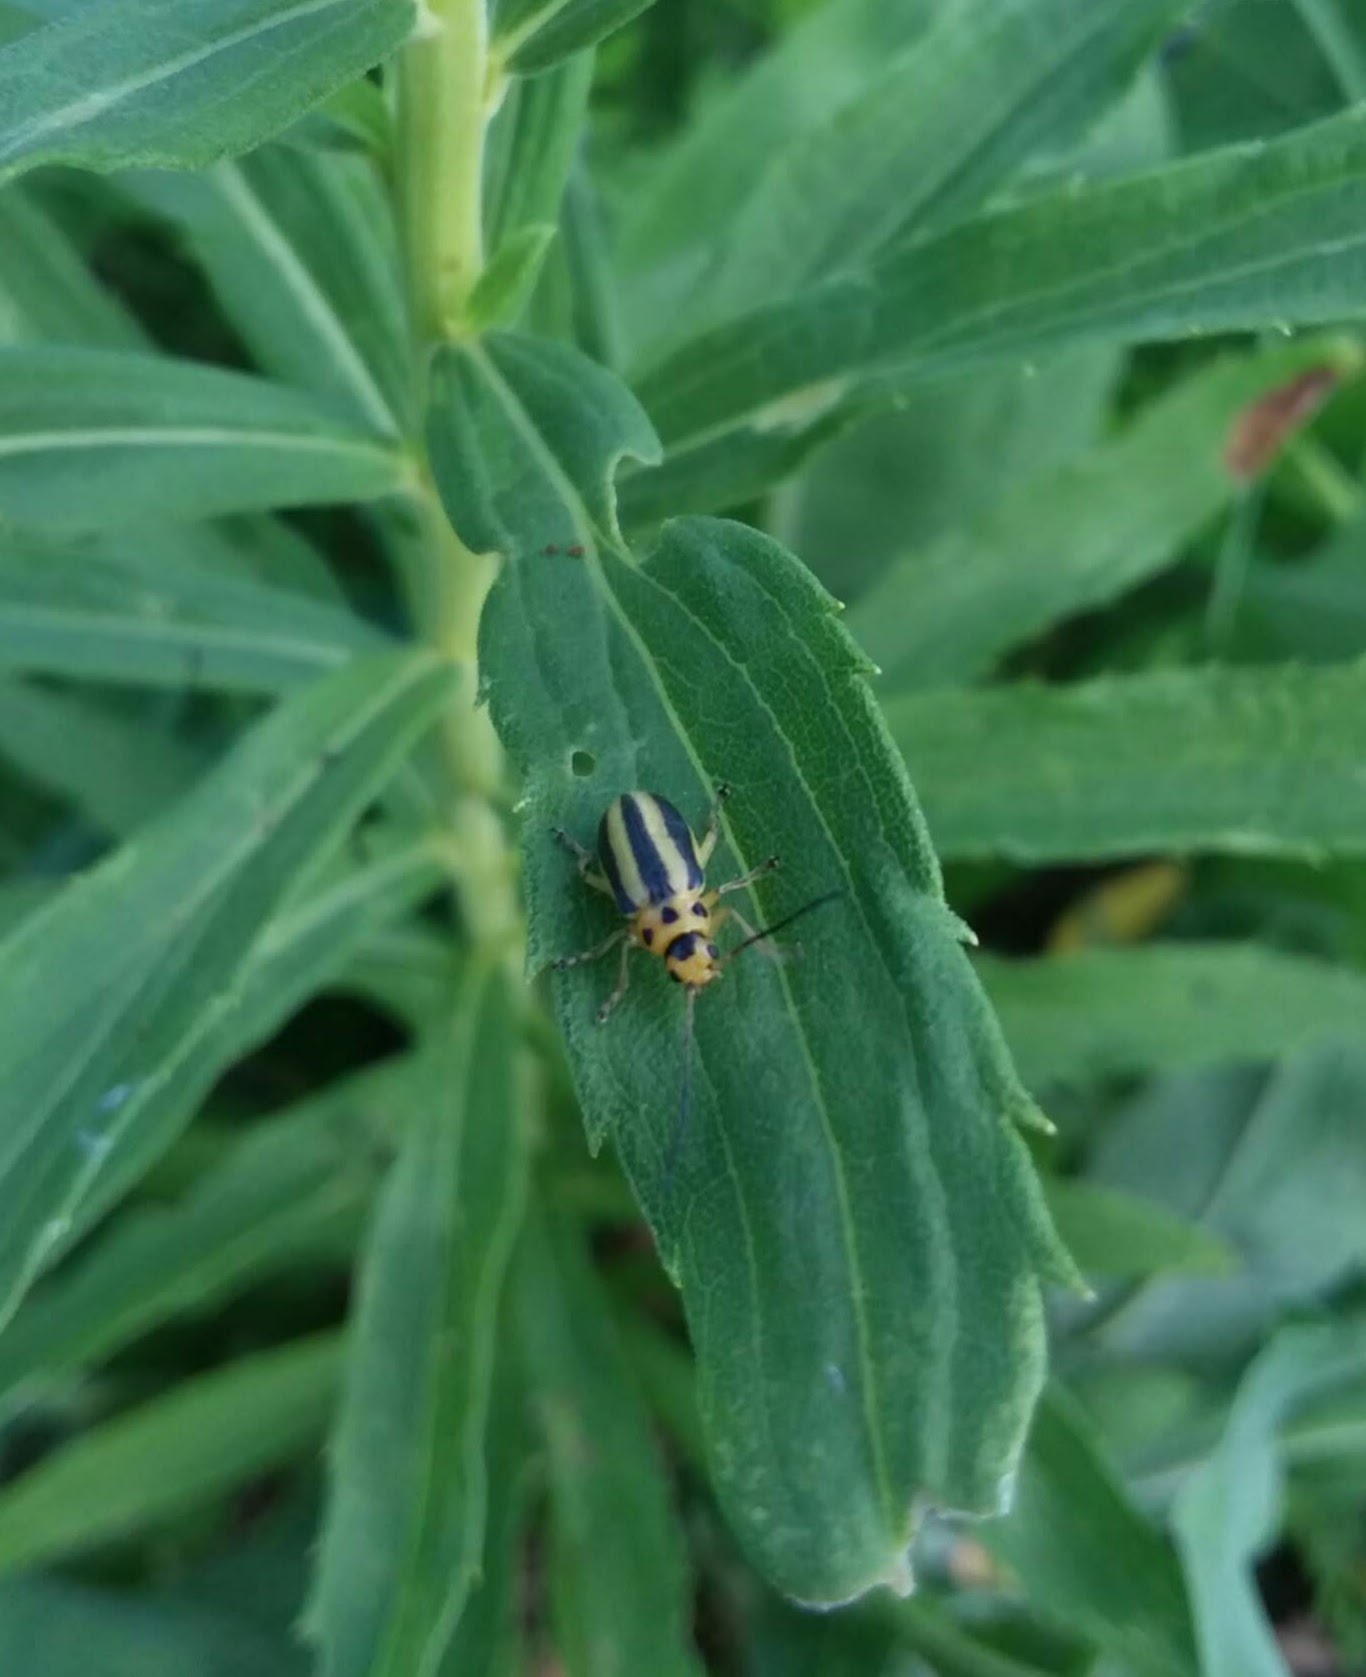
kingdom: Animalia
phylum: Arthropoda
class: Insecta
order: Coleoptera
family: Chrysomelidae
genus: Trirhabda
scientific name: Trirhabda canadensis
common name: Goldenrod leaf beetle
